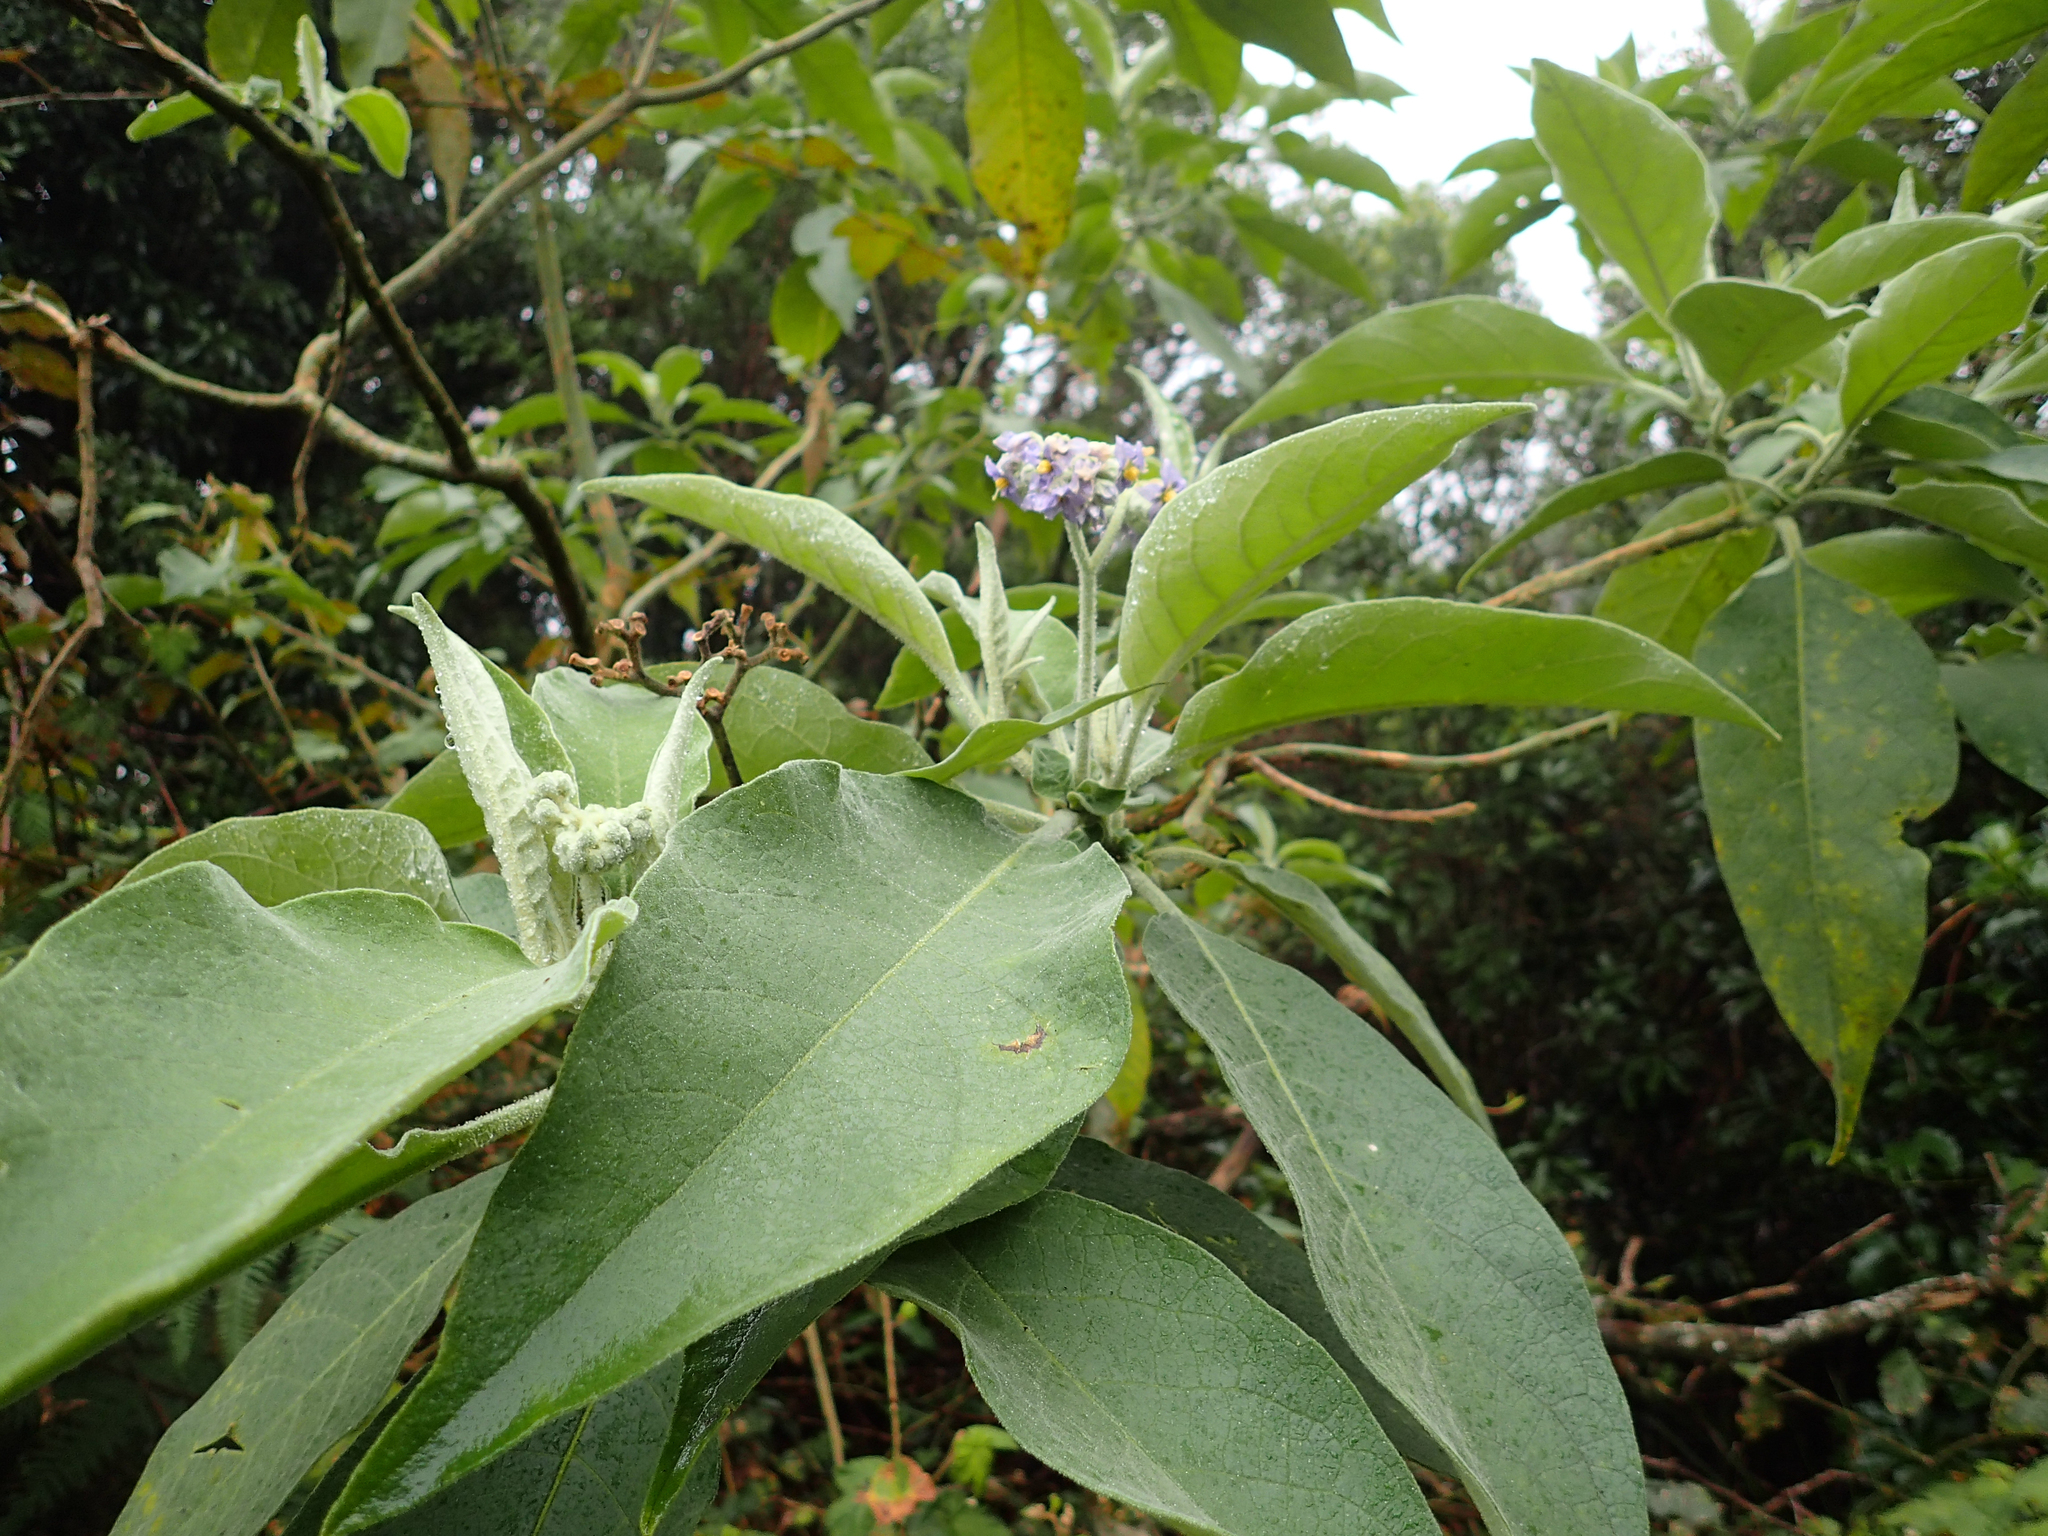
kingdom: Plantae
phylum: Tracheophyta
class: Magnoliopsida
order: Solanales
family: Solanaceae
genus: Solanum
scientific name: Solanum mauritianum
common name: Earleaf nightshade
